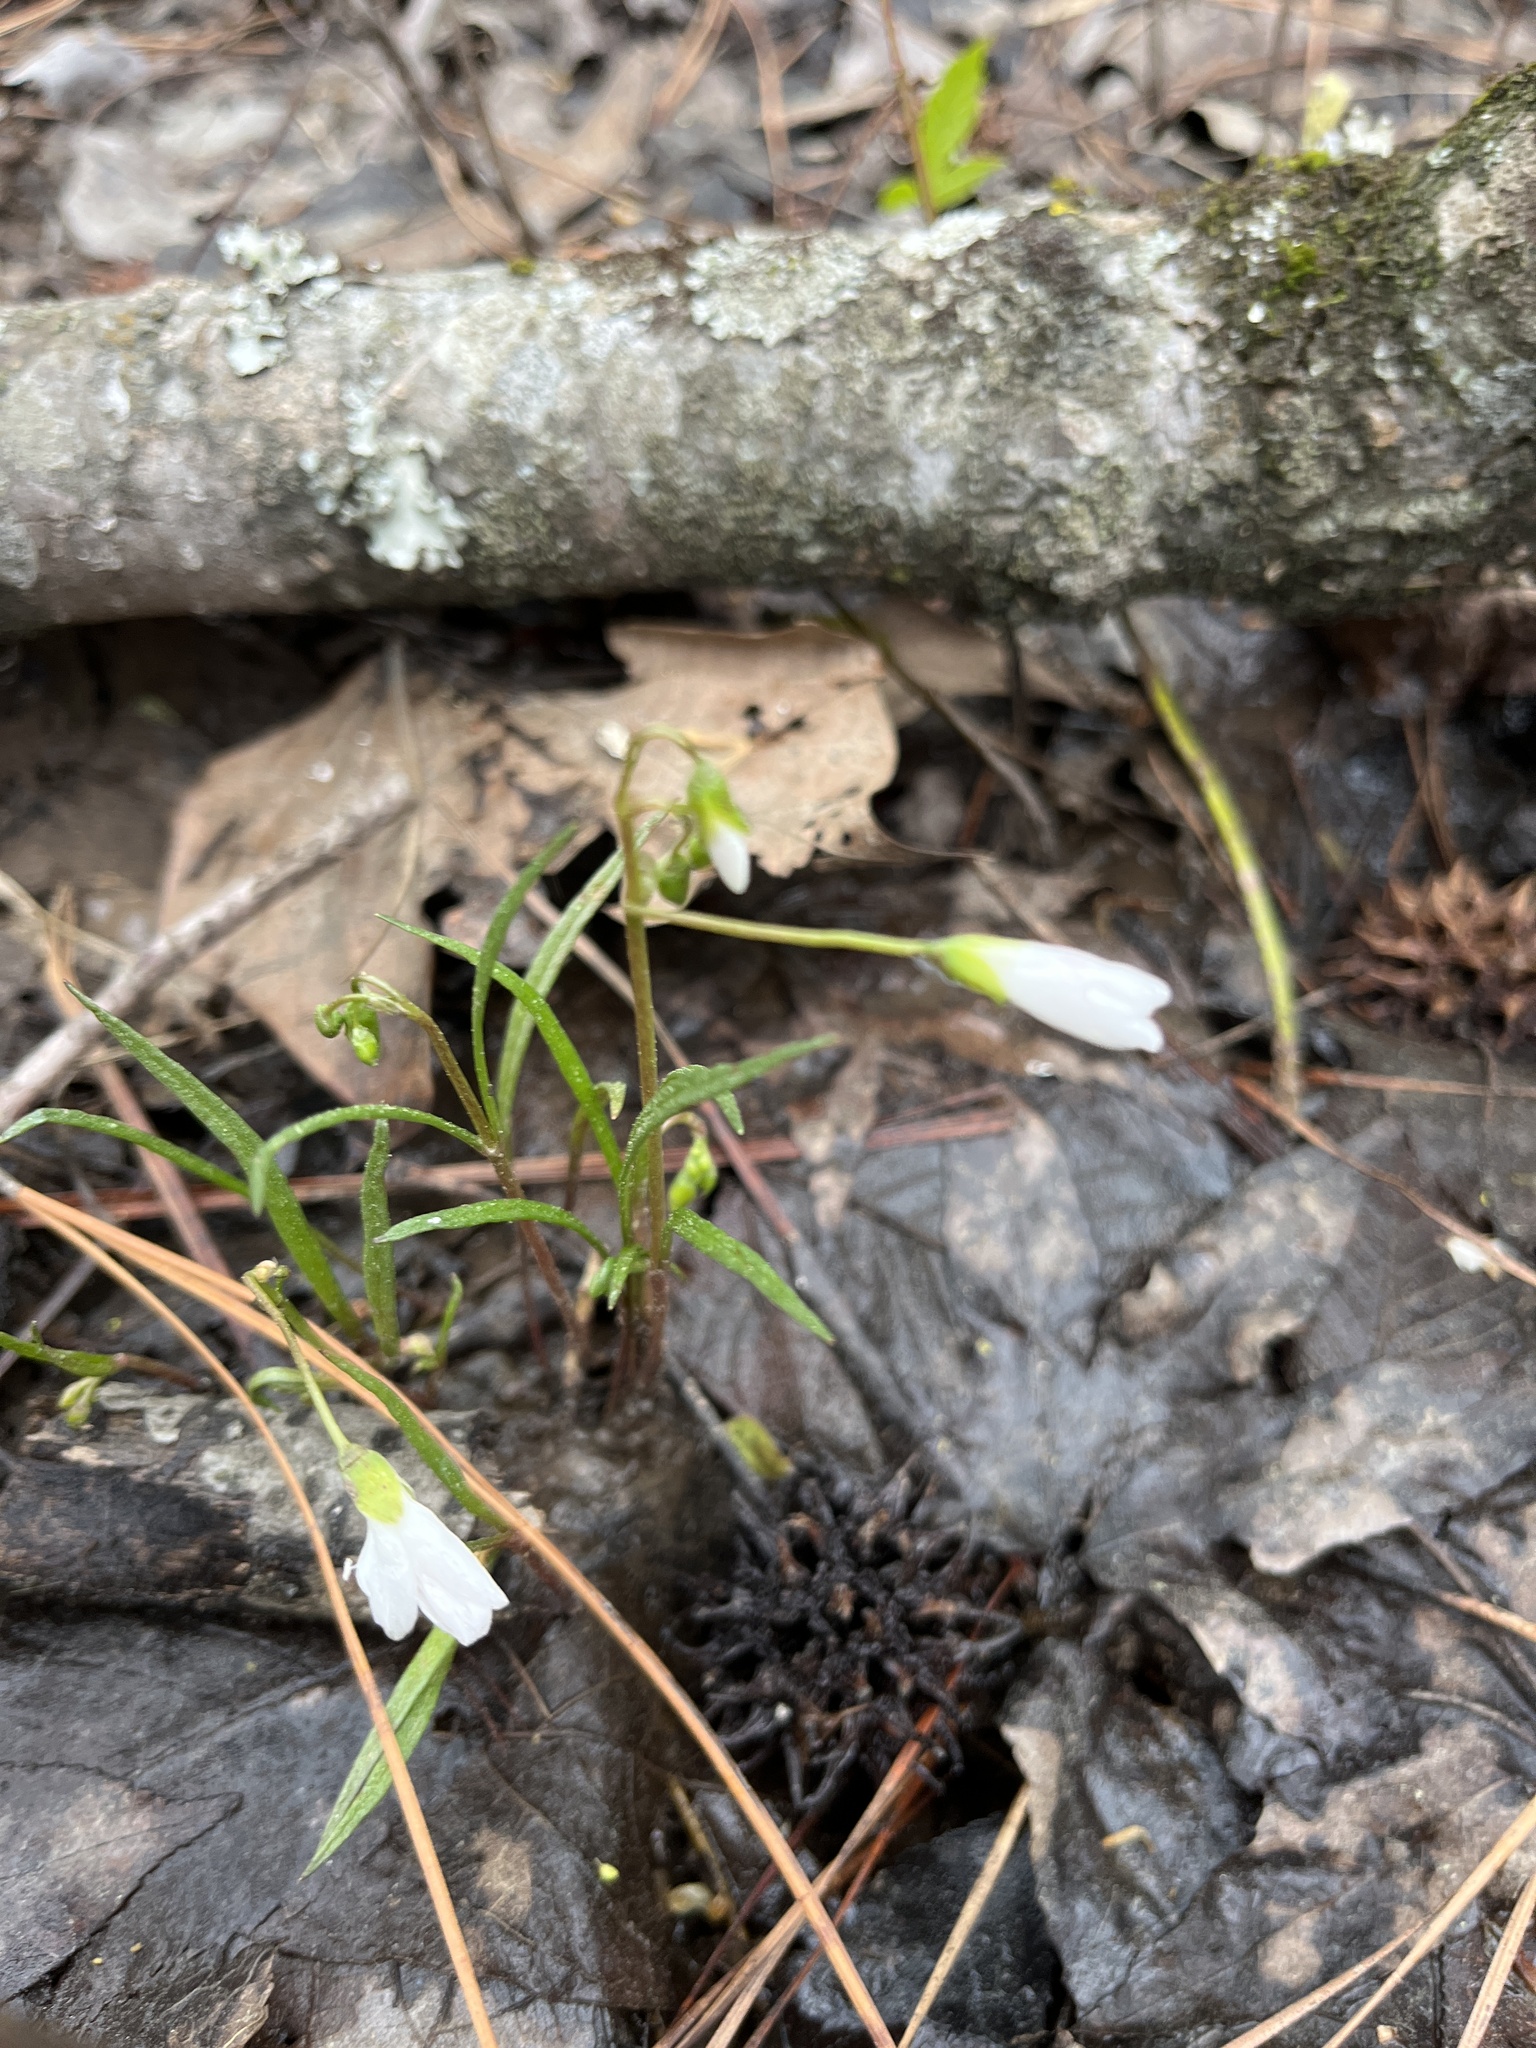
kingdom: Plantae
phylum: Tracheophyta
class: Magnoliopsida
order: Caryophyllales
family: Montiaceae
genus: Claytonia
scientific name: Claytonia virginica
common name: Virginia springbeauty
